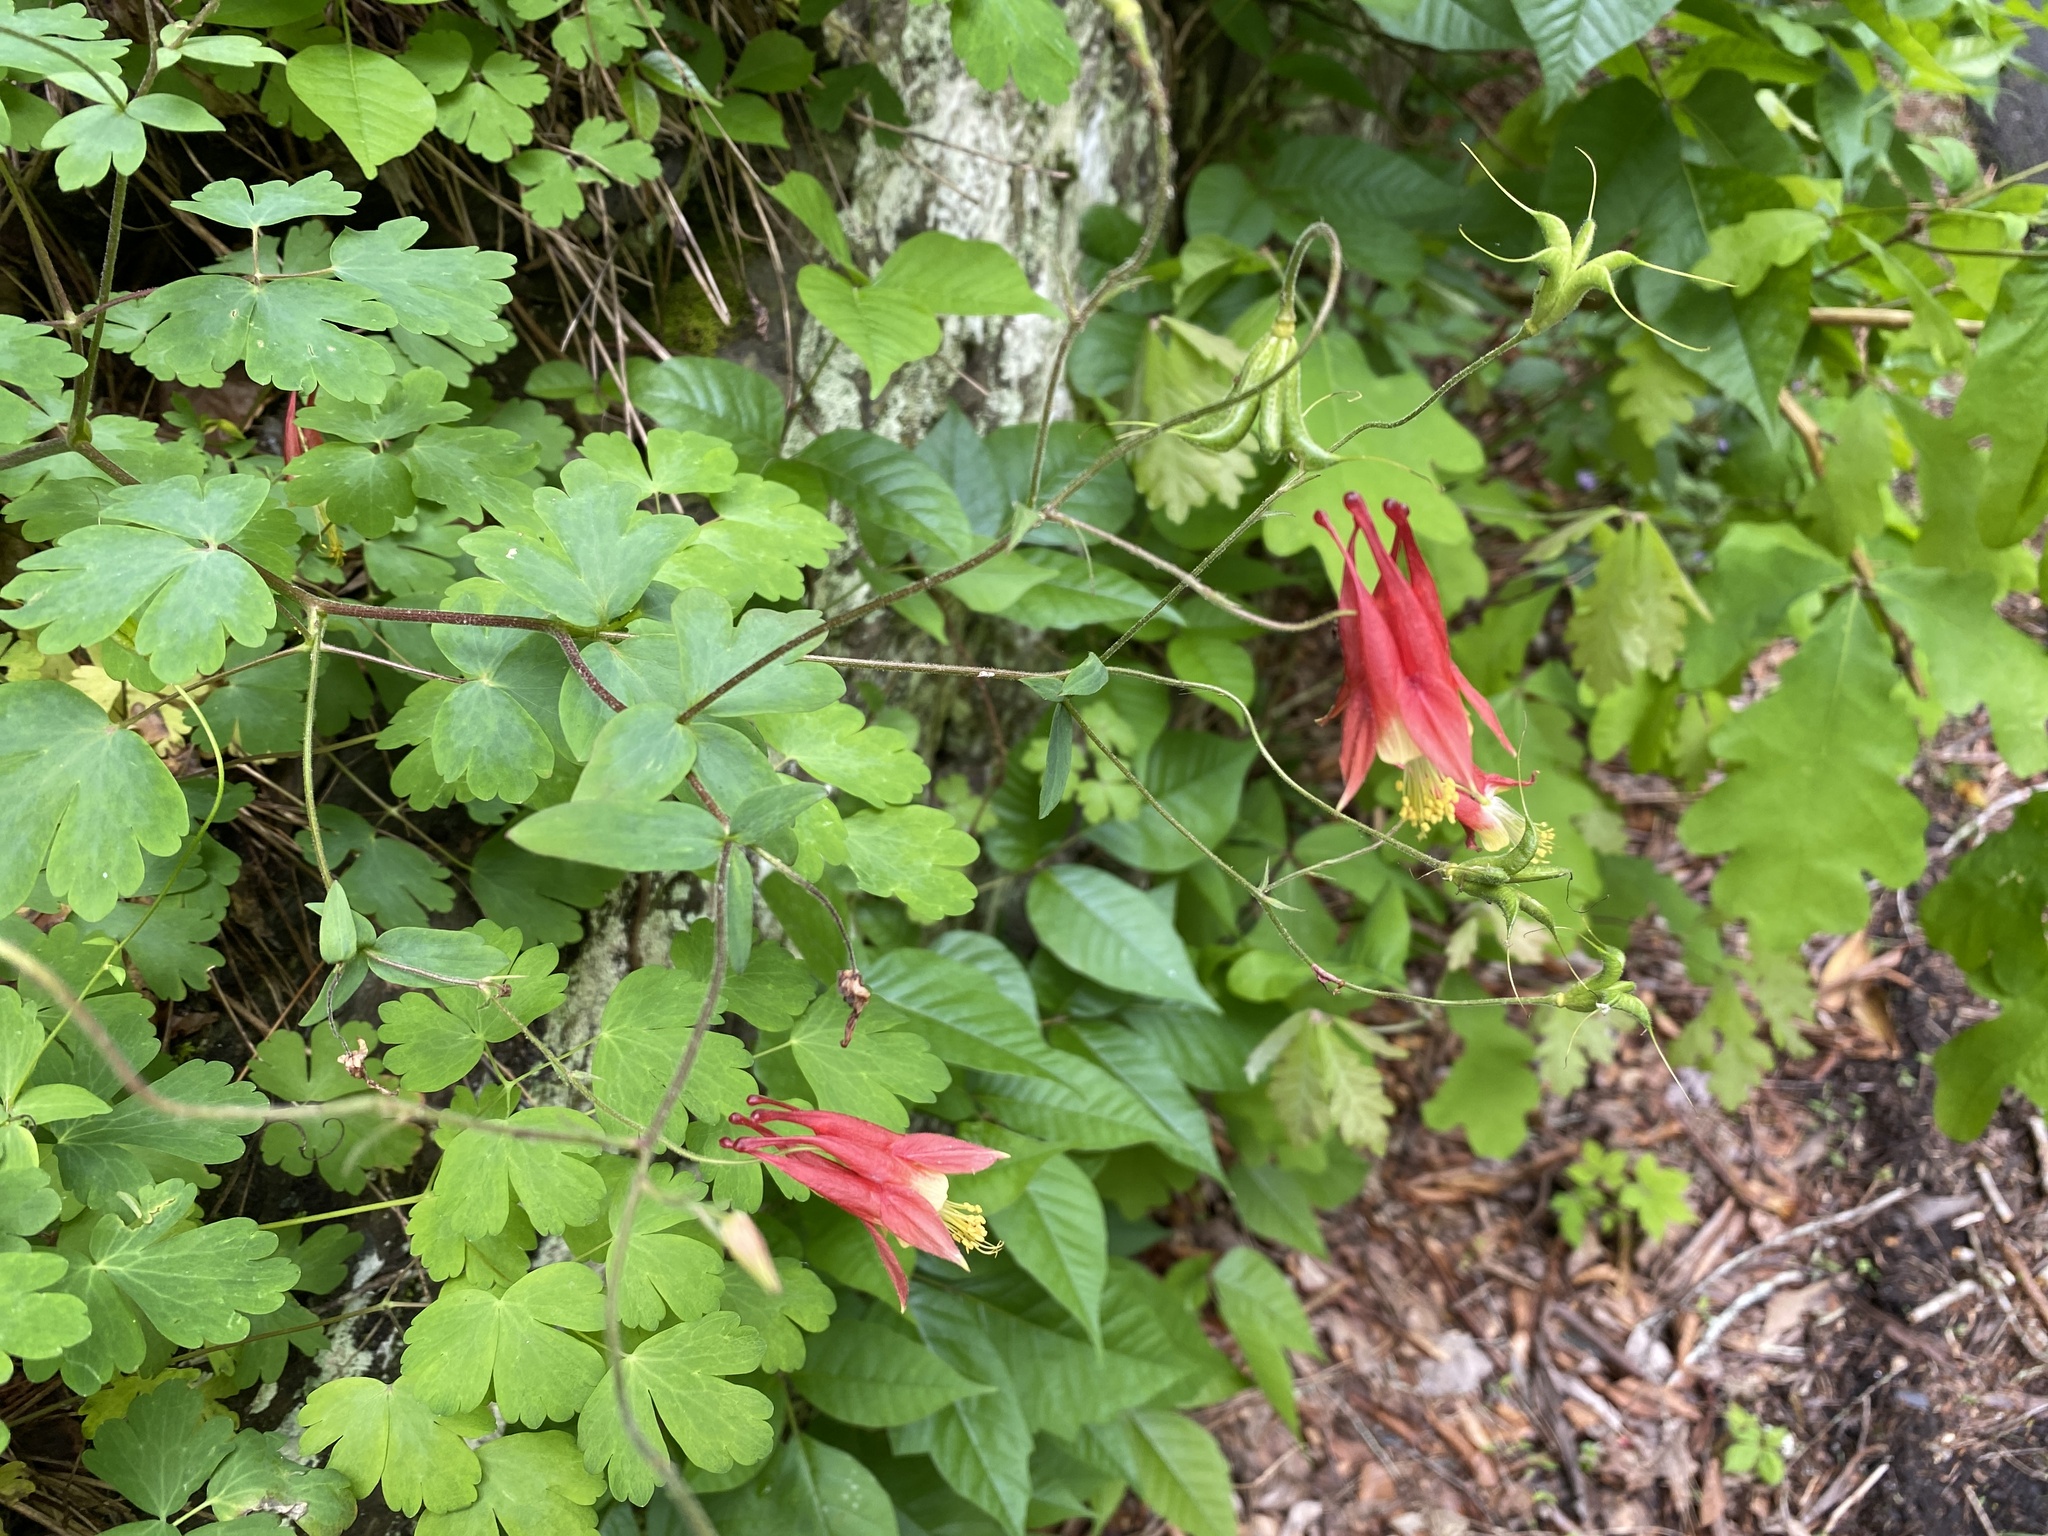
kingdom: Plantae
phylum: Tracheophyta
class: Magnoliopsida
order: Ranunculales
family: Ranunculaceae
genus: Aquilegia
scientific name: Aquilegia canadensis
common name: American columbine
